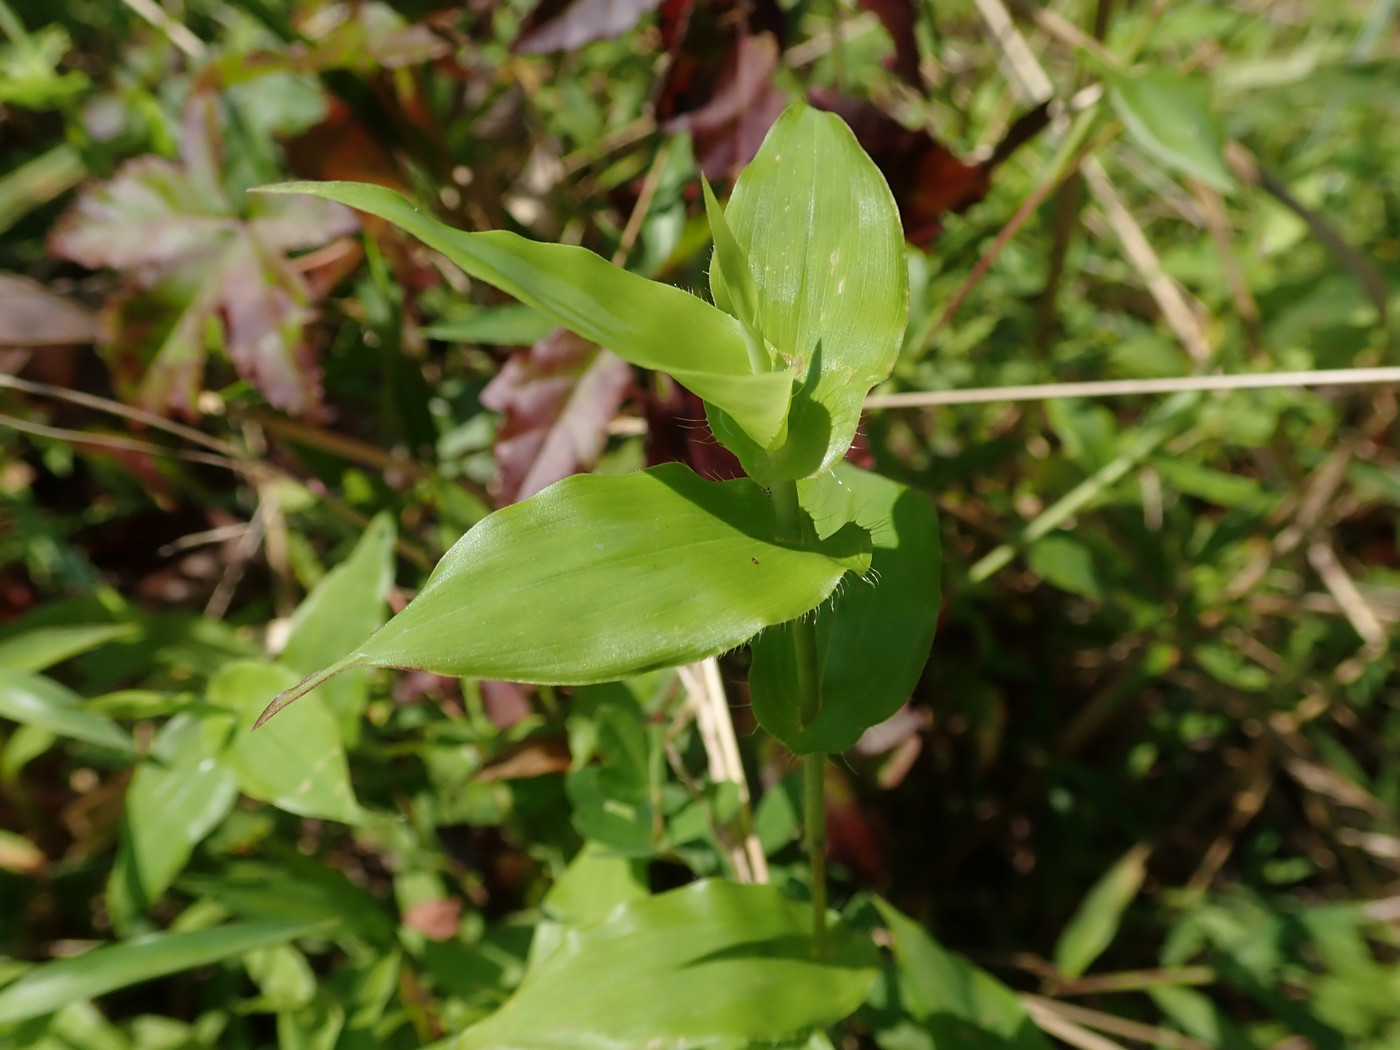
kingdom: Plantae
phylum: Tracheophyta
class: Liliopsida
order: Poales
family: Poaceae
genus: Arthraxon
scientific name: Arthraxon hispidus
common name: Small carpgrass
